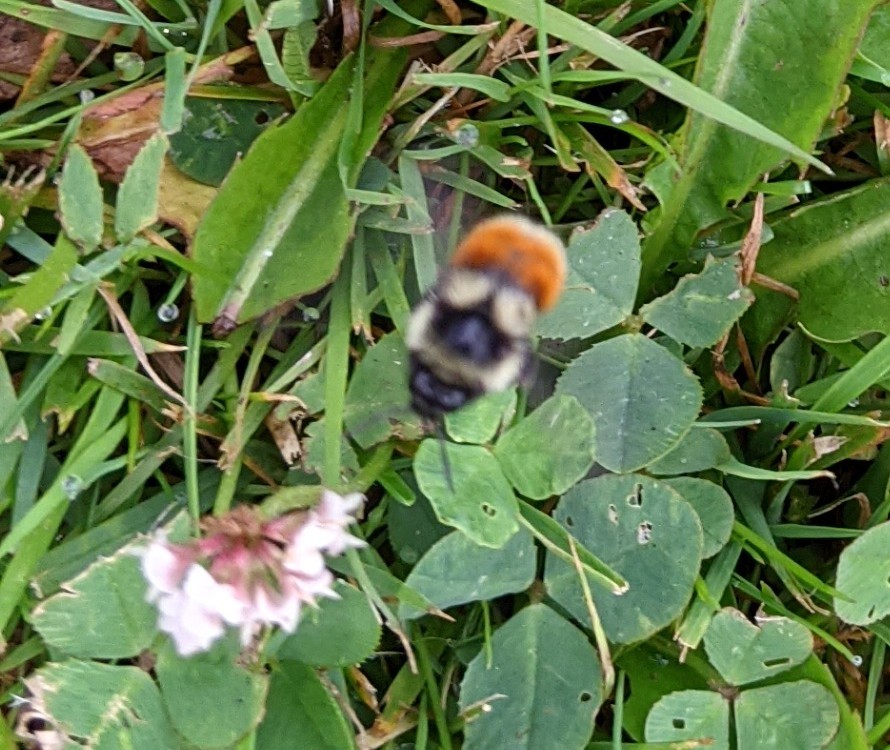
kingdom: Animalia
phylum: Arthropoda
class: Insecta
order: Hymenoptera
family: Apidae
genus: Bombus
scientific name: Bombus ternarius
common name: Tri-colored bumble bee
